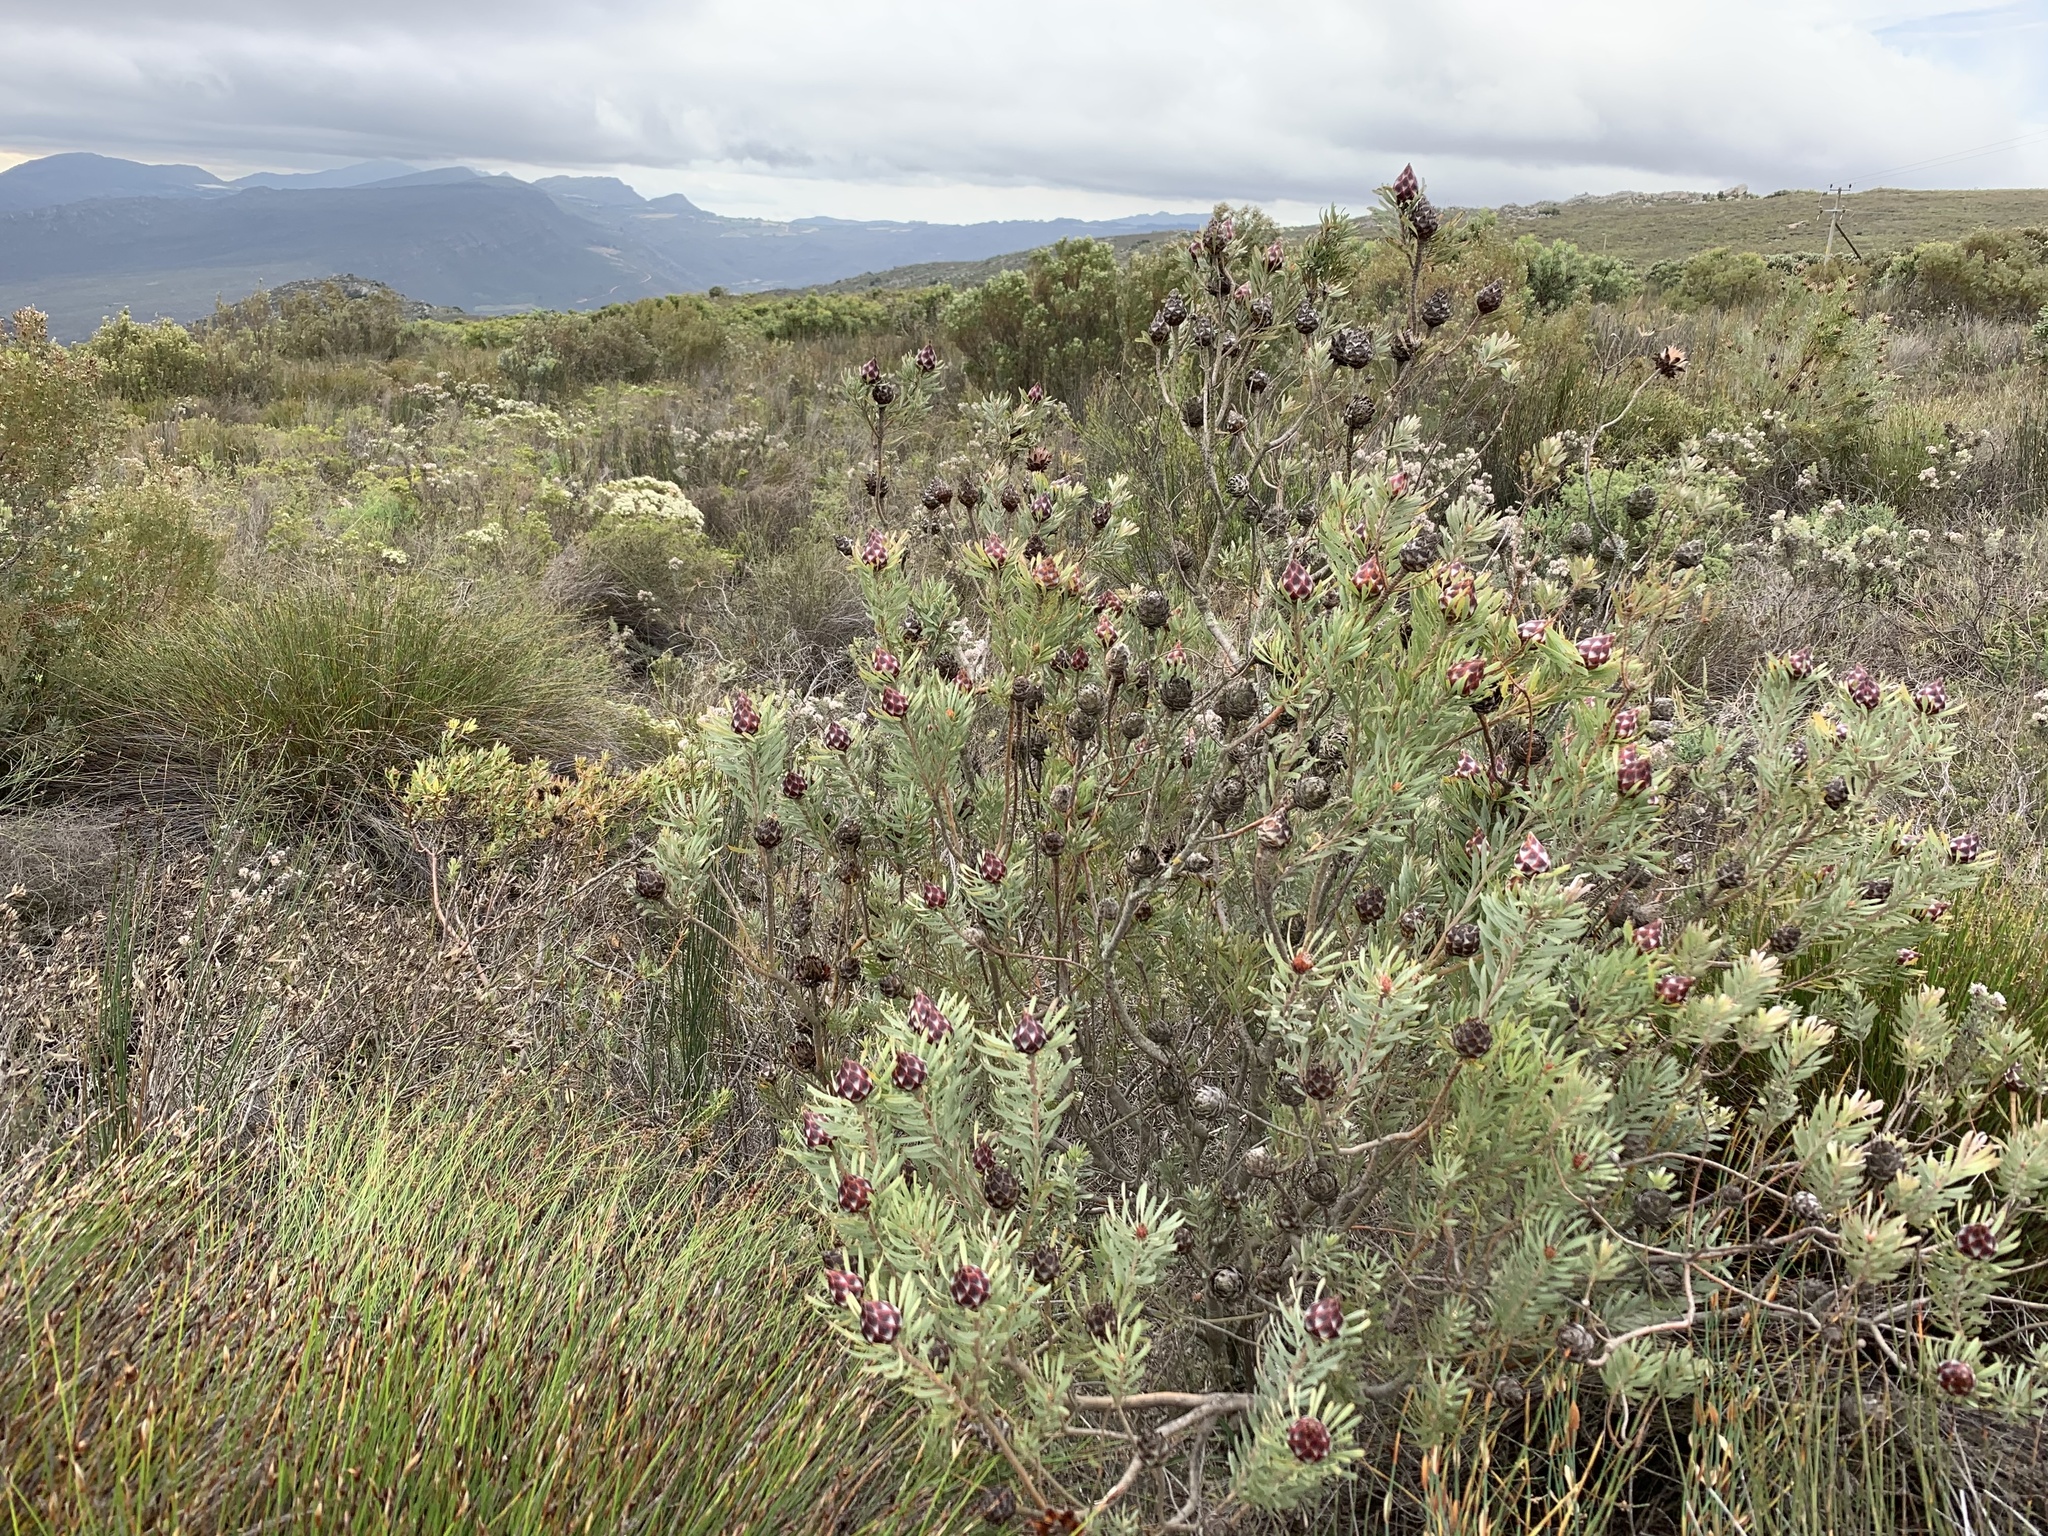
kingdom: Plantae
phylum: Tracheophyta
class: Magnoliopsida
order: Proteales
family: Proteaceae
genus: Leucadendron
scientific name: Leucadendron rubrum
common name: Spinning top
